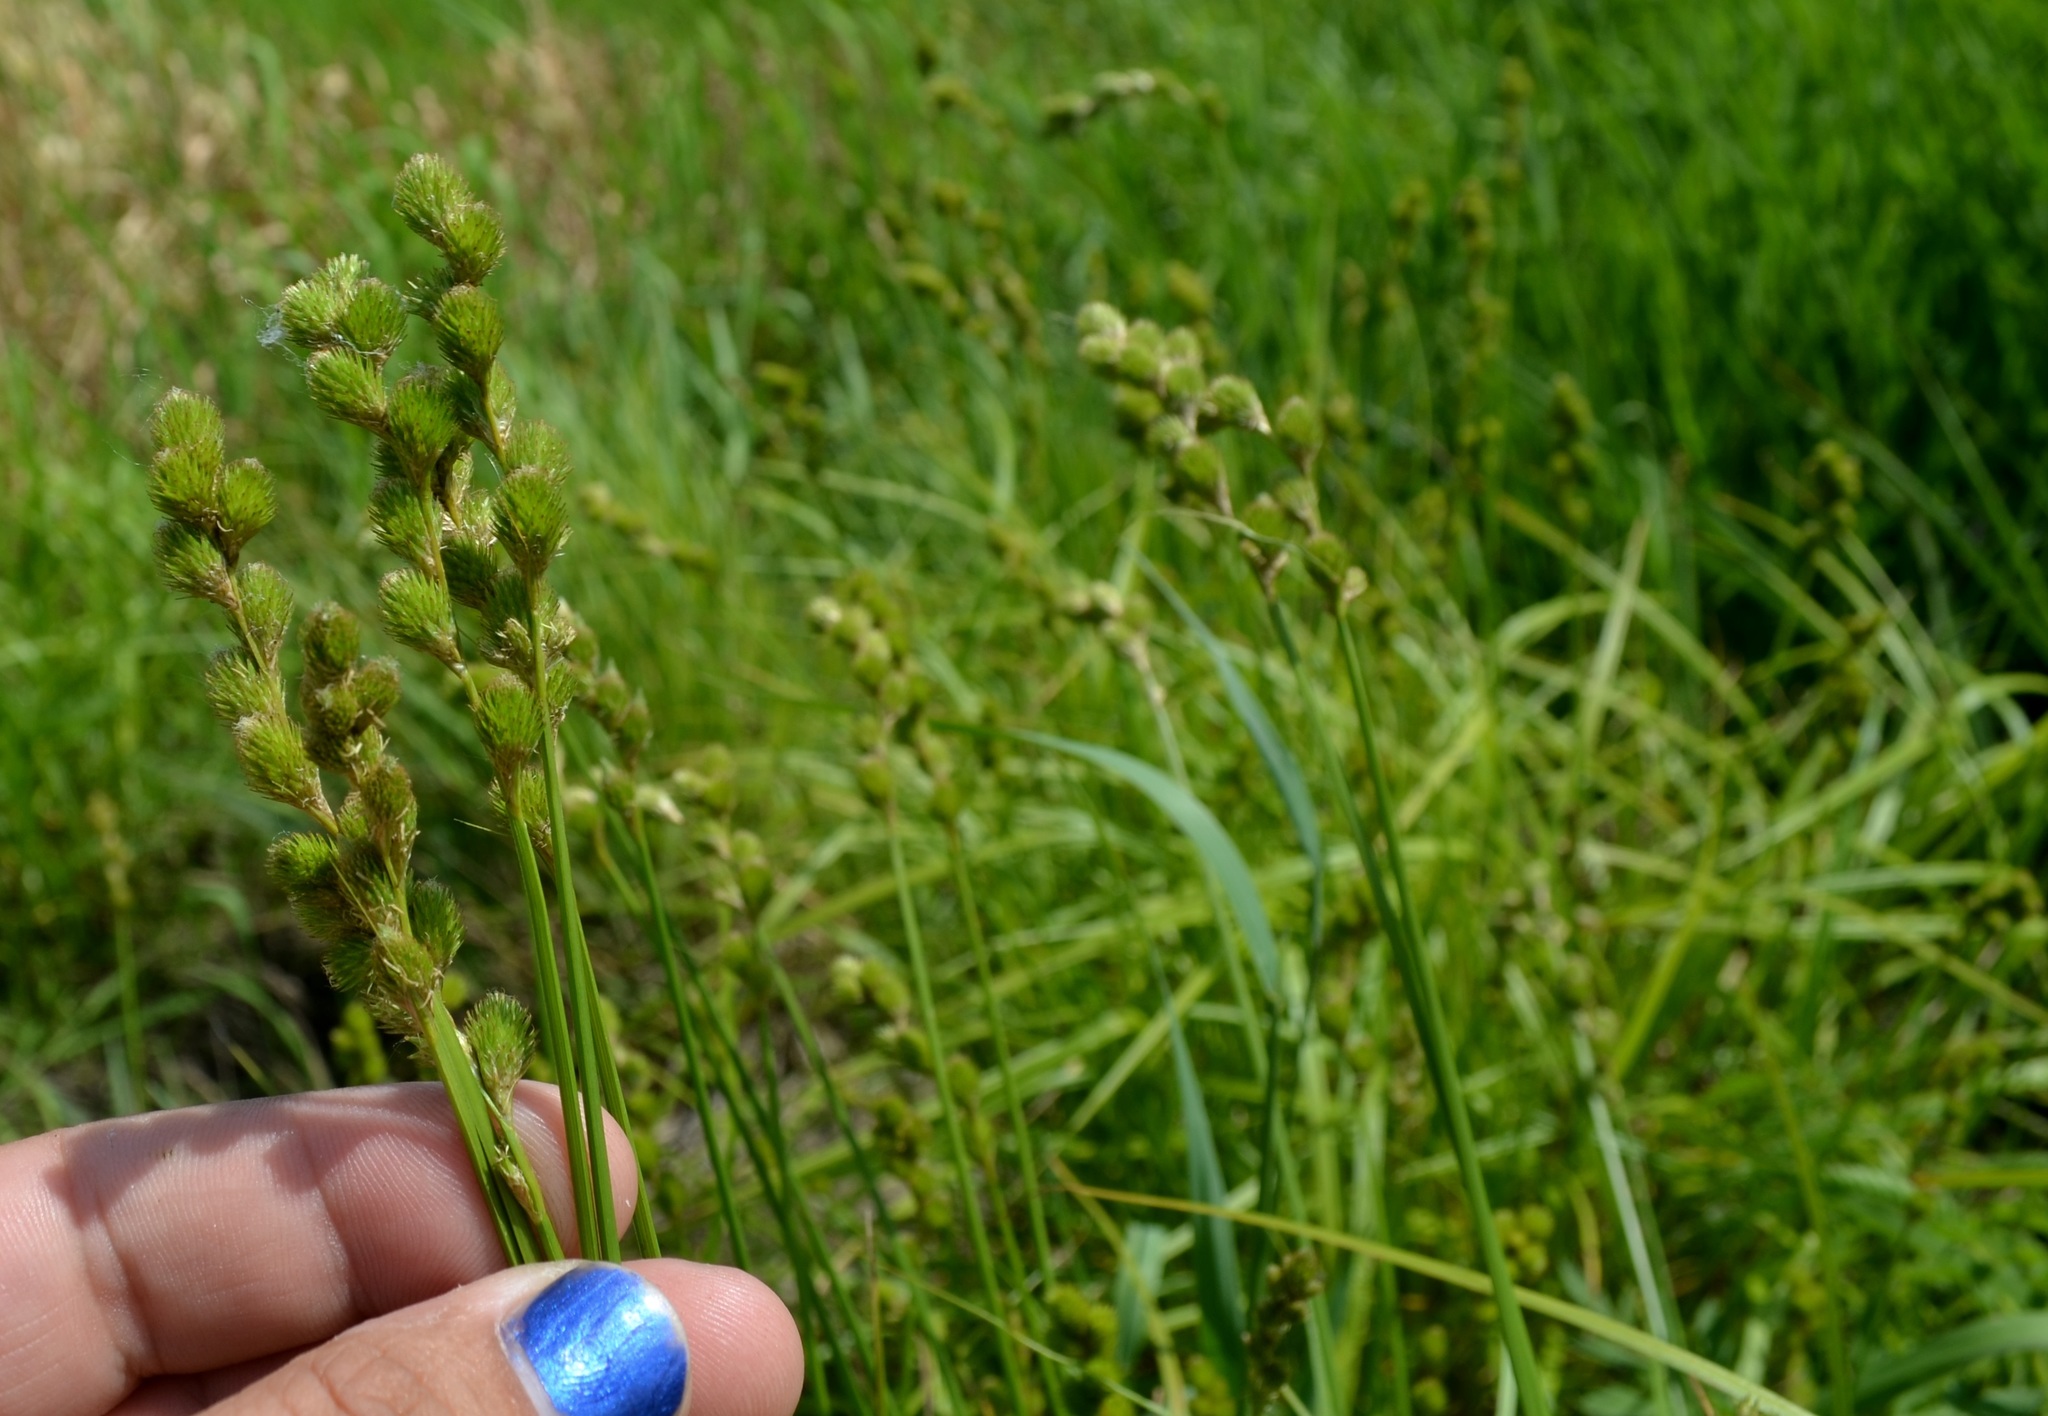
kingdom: Plantae
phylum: Tracheophyta
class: Liliopsida
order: Poales
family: Cyperaceae
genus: Carex
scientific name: Carex bebbii
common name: Bebb's sedge
